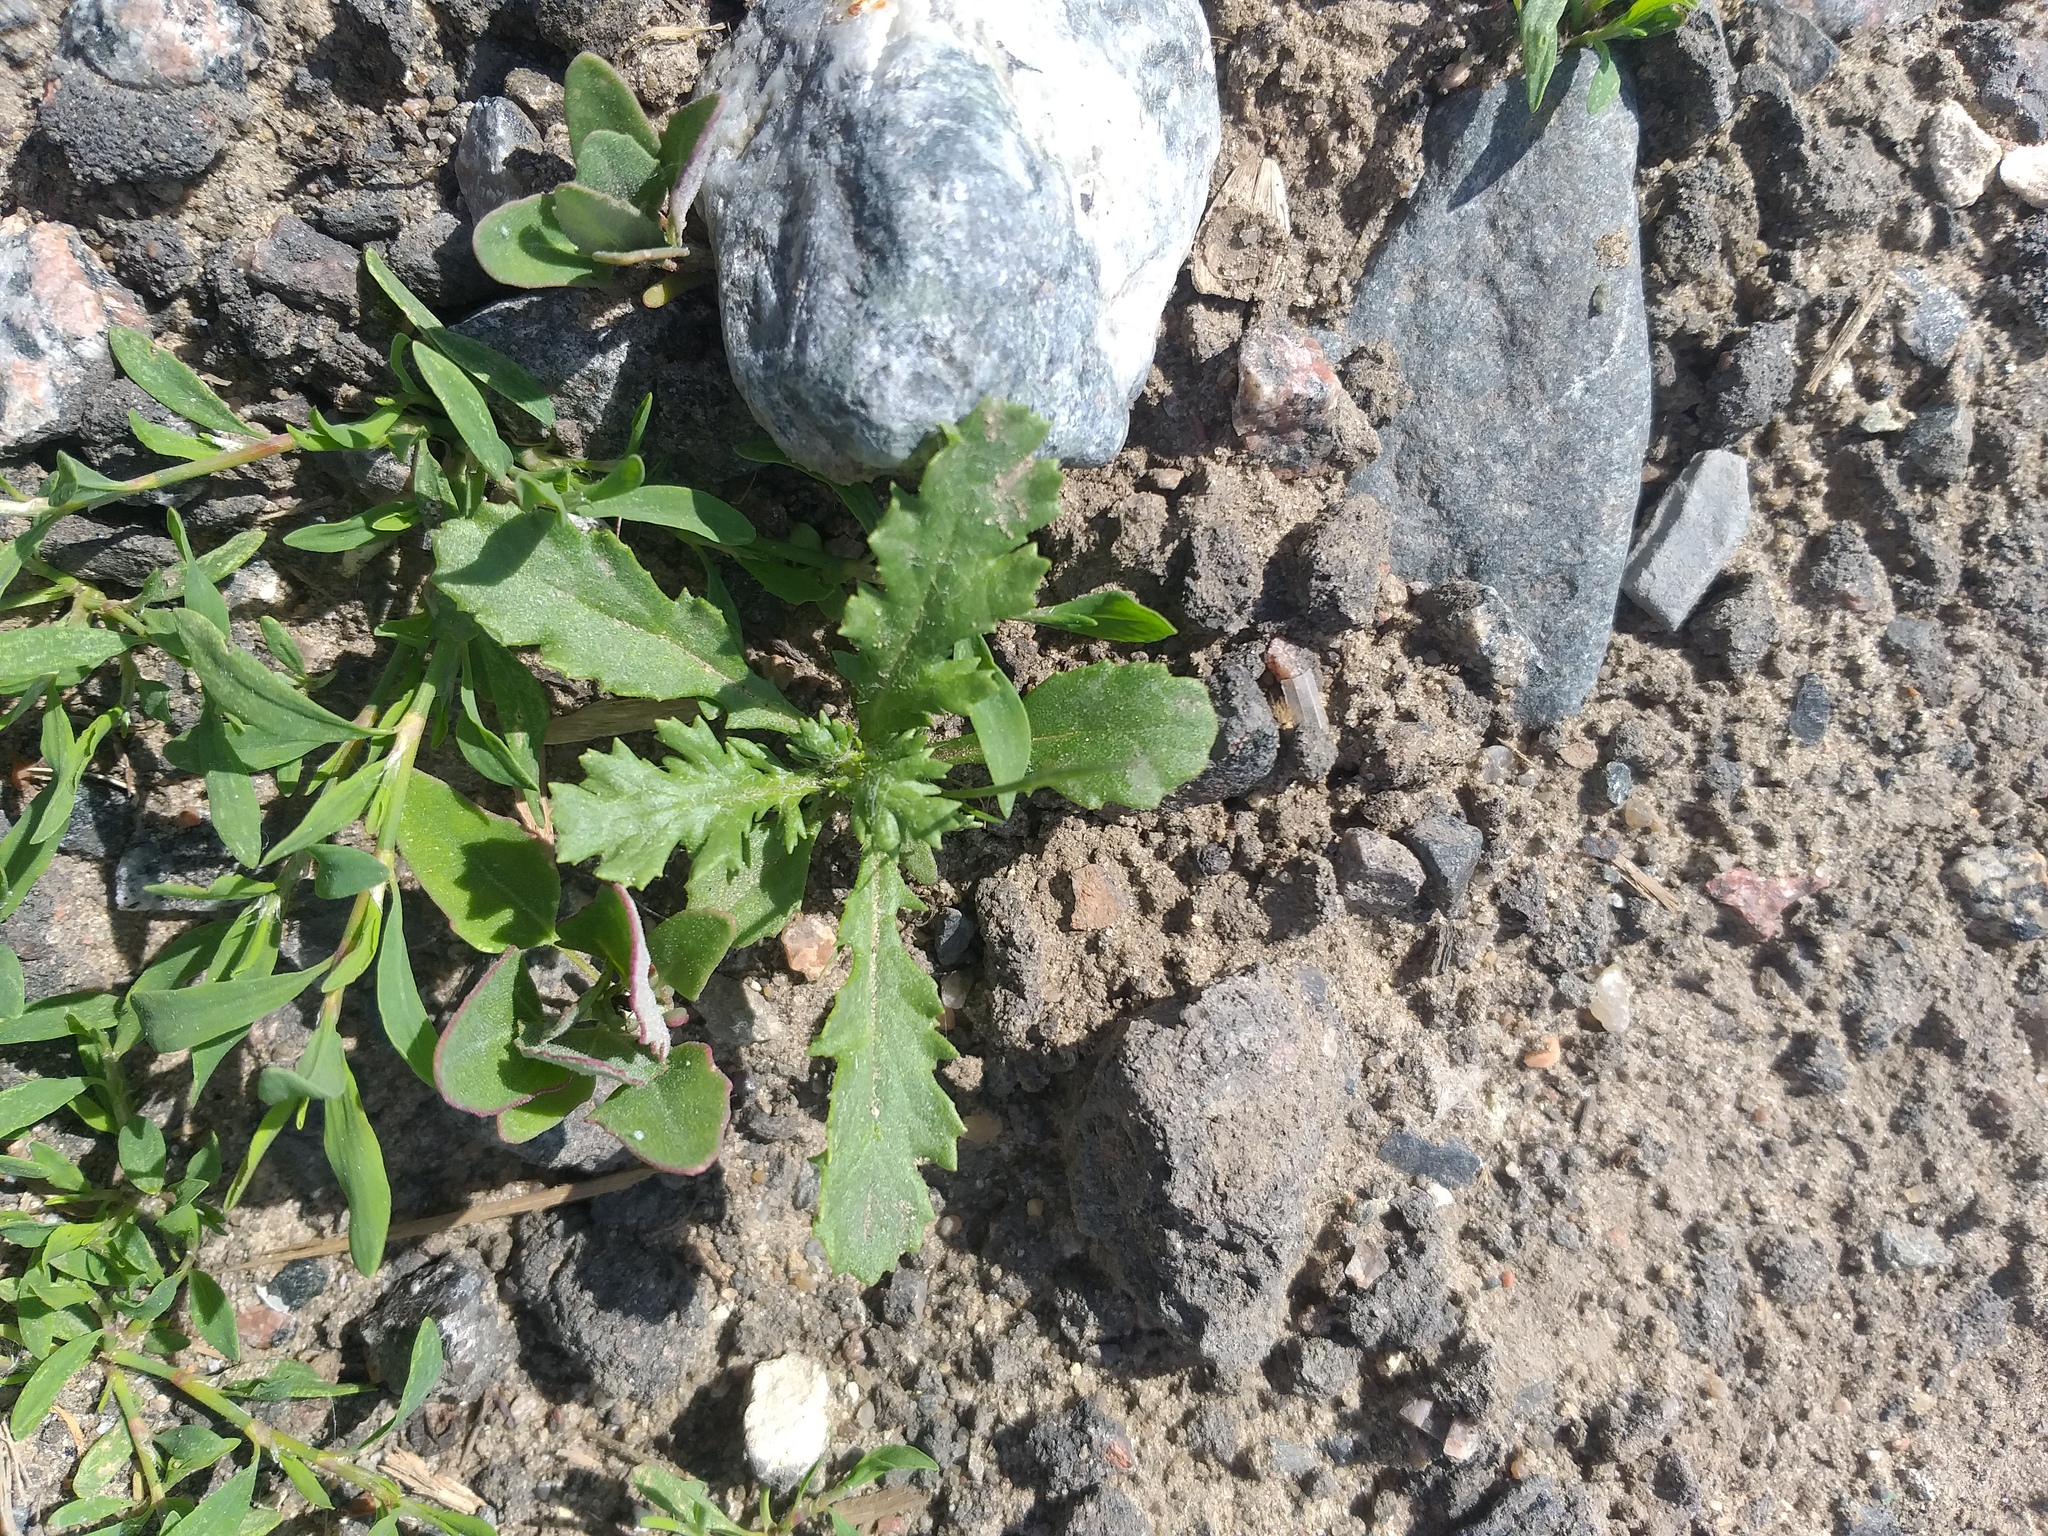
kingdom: Plantae
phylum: Tracheophyta
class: Magnoliopsida
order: Asterales
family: Asteraceae
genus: Senecio
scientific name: Senecio vulgaris
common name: Old-man-in-the-spring
